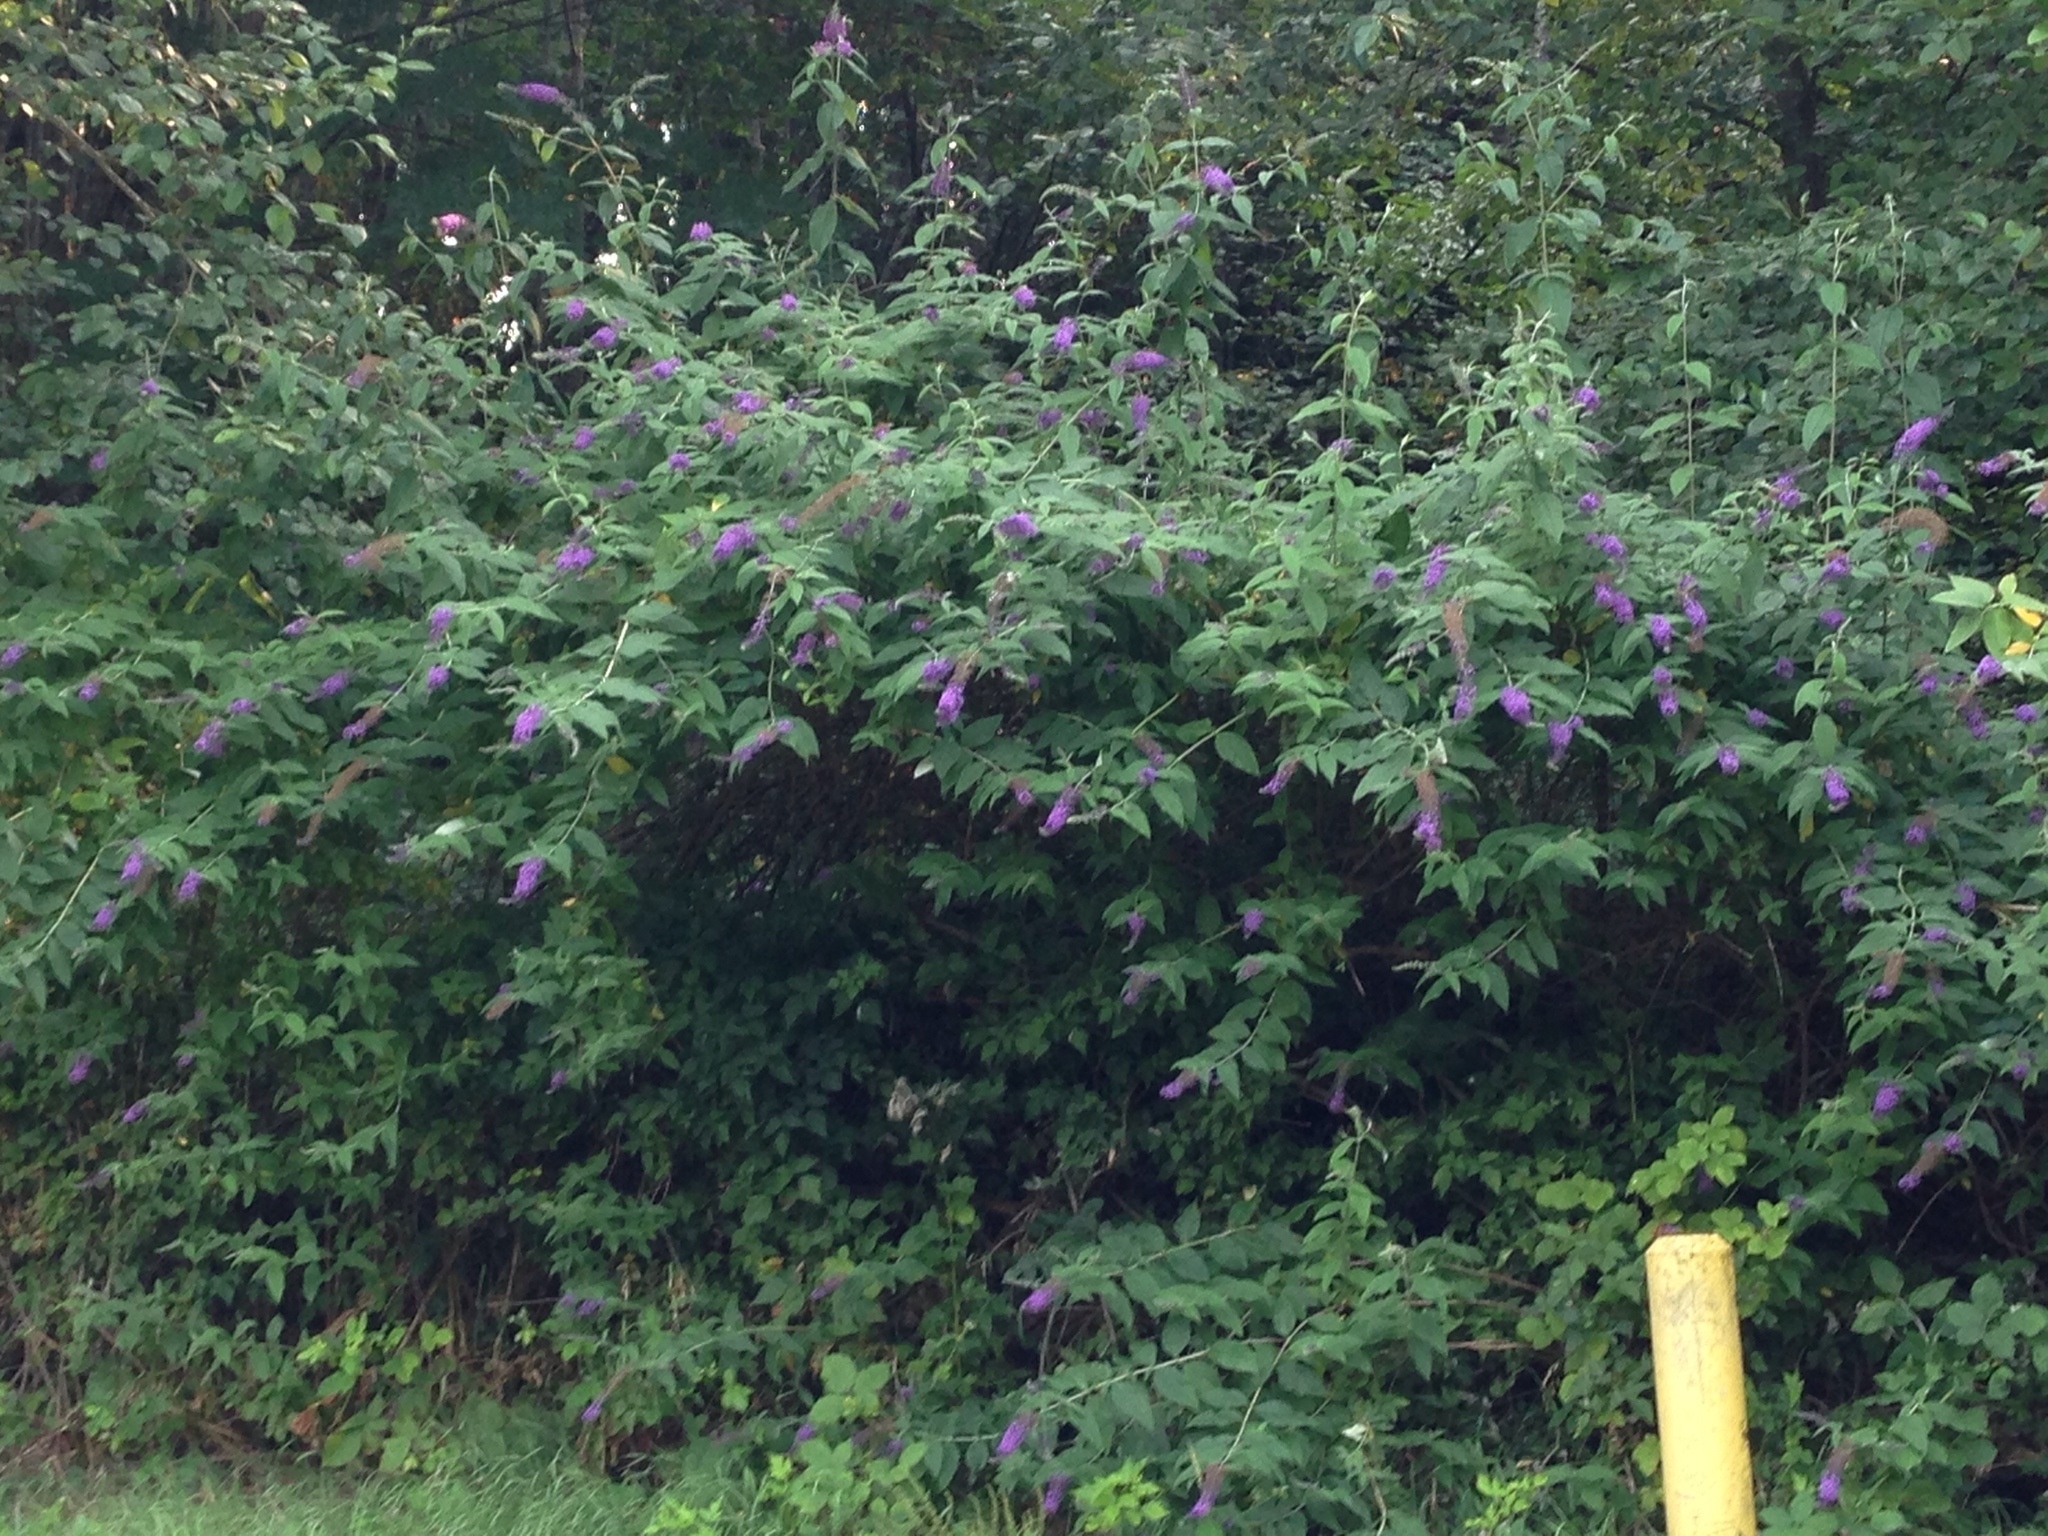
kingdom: Plantae
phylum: Tracheophyta
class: Magnoliopsida
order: Lamiales
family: Scrophulariaceae
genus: Buddleja
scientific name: Buddleja davidii
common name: Butterfly-bush
